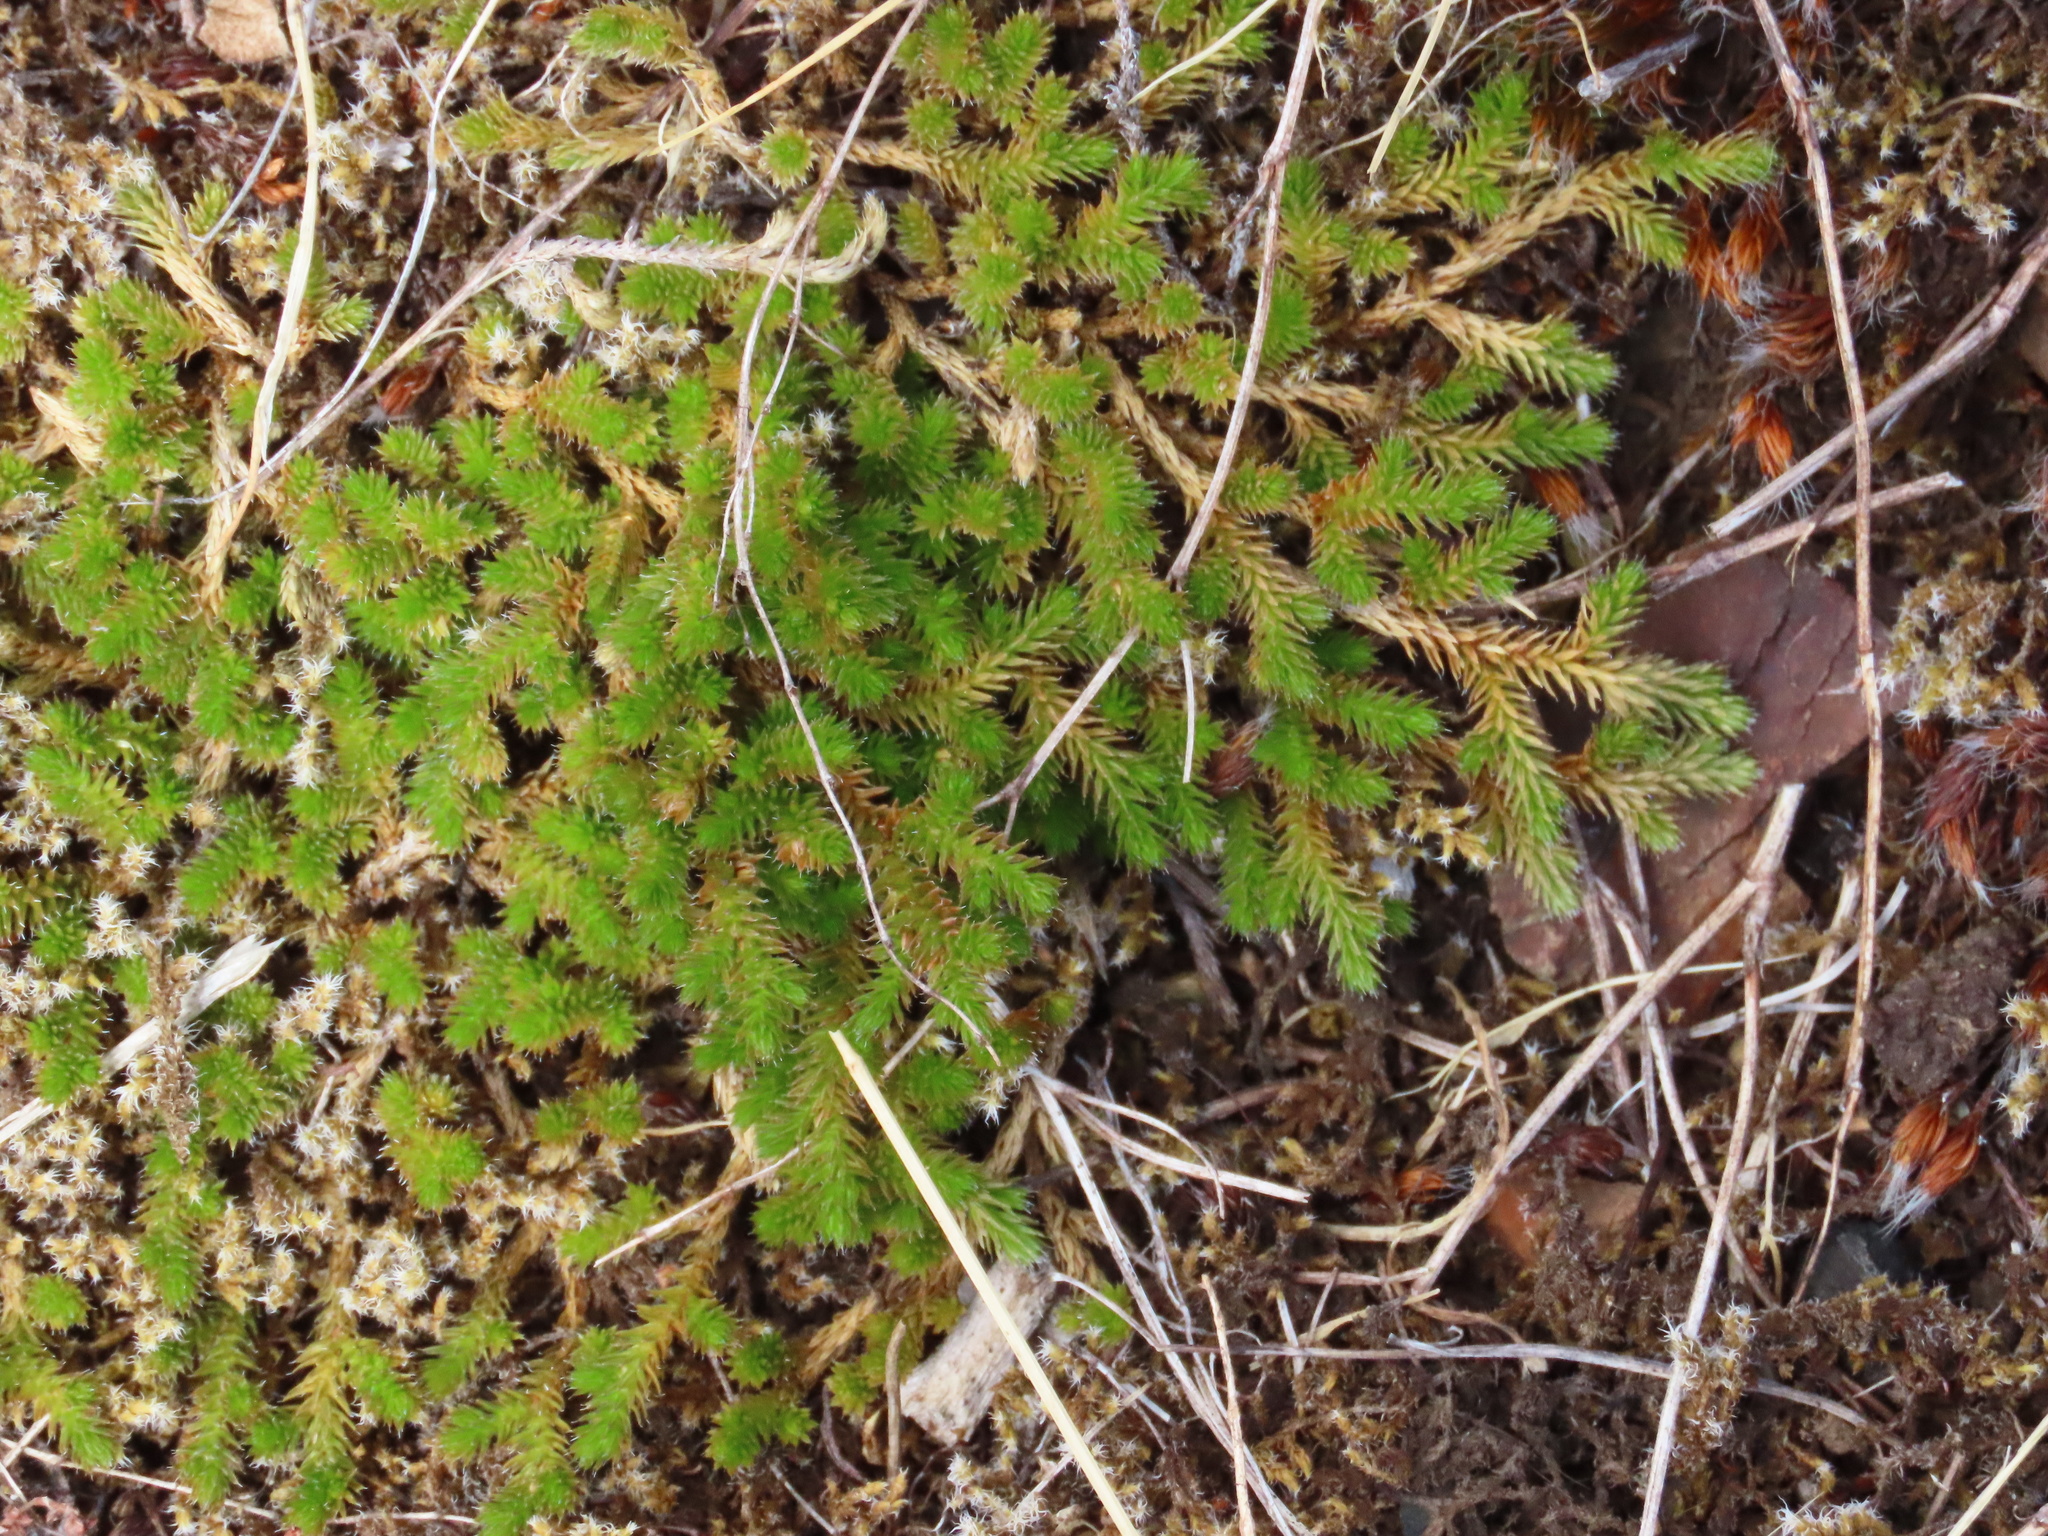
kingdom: Plantae
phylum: Tracheophyta
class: Lycopodiopsida
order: Selaginellales
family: Selaginellaceae
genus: Selaginella
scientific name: Selaginella wallacei
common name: Wallace's selaginella
